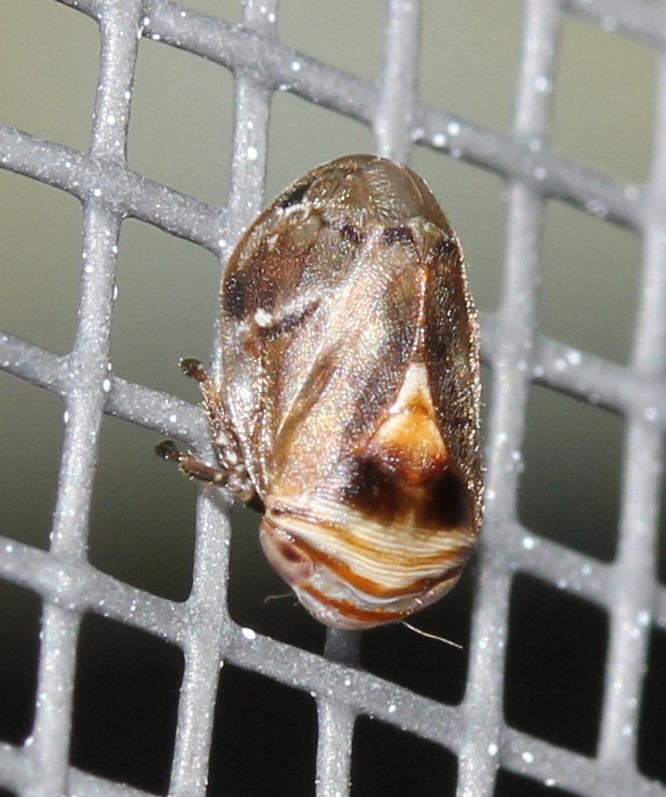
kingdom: Animalia
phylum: Arthropoda
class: Insecta
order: Hemiptera
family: Clastopteridae
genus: Clastoptera
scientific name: Clastoptera obtusa
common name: Alder spittlebug
